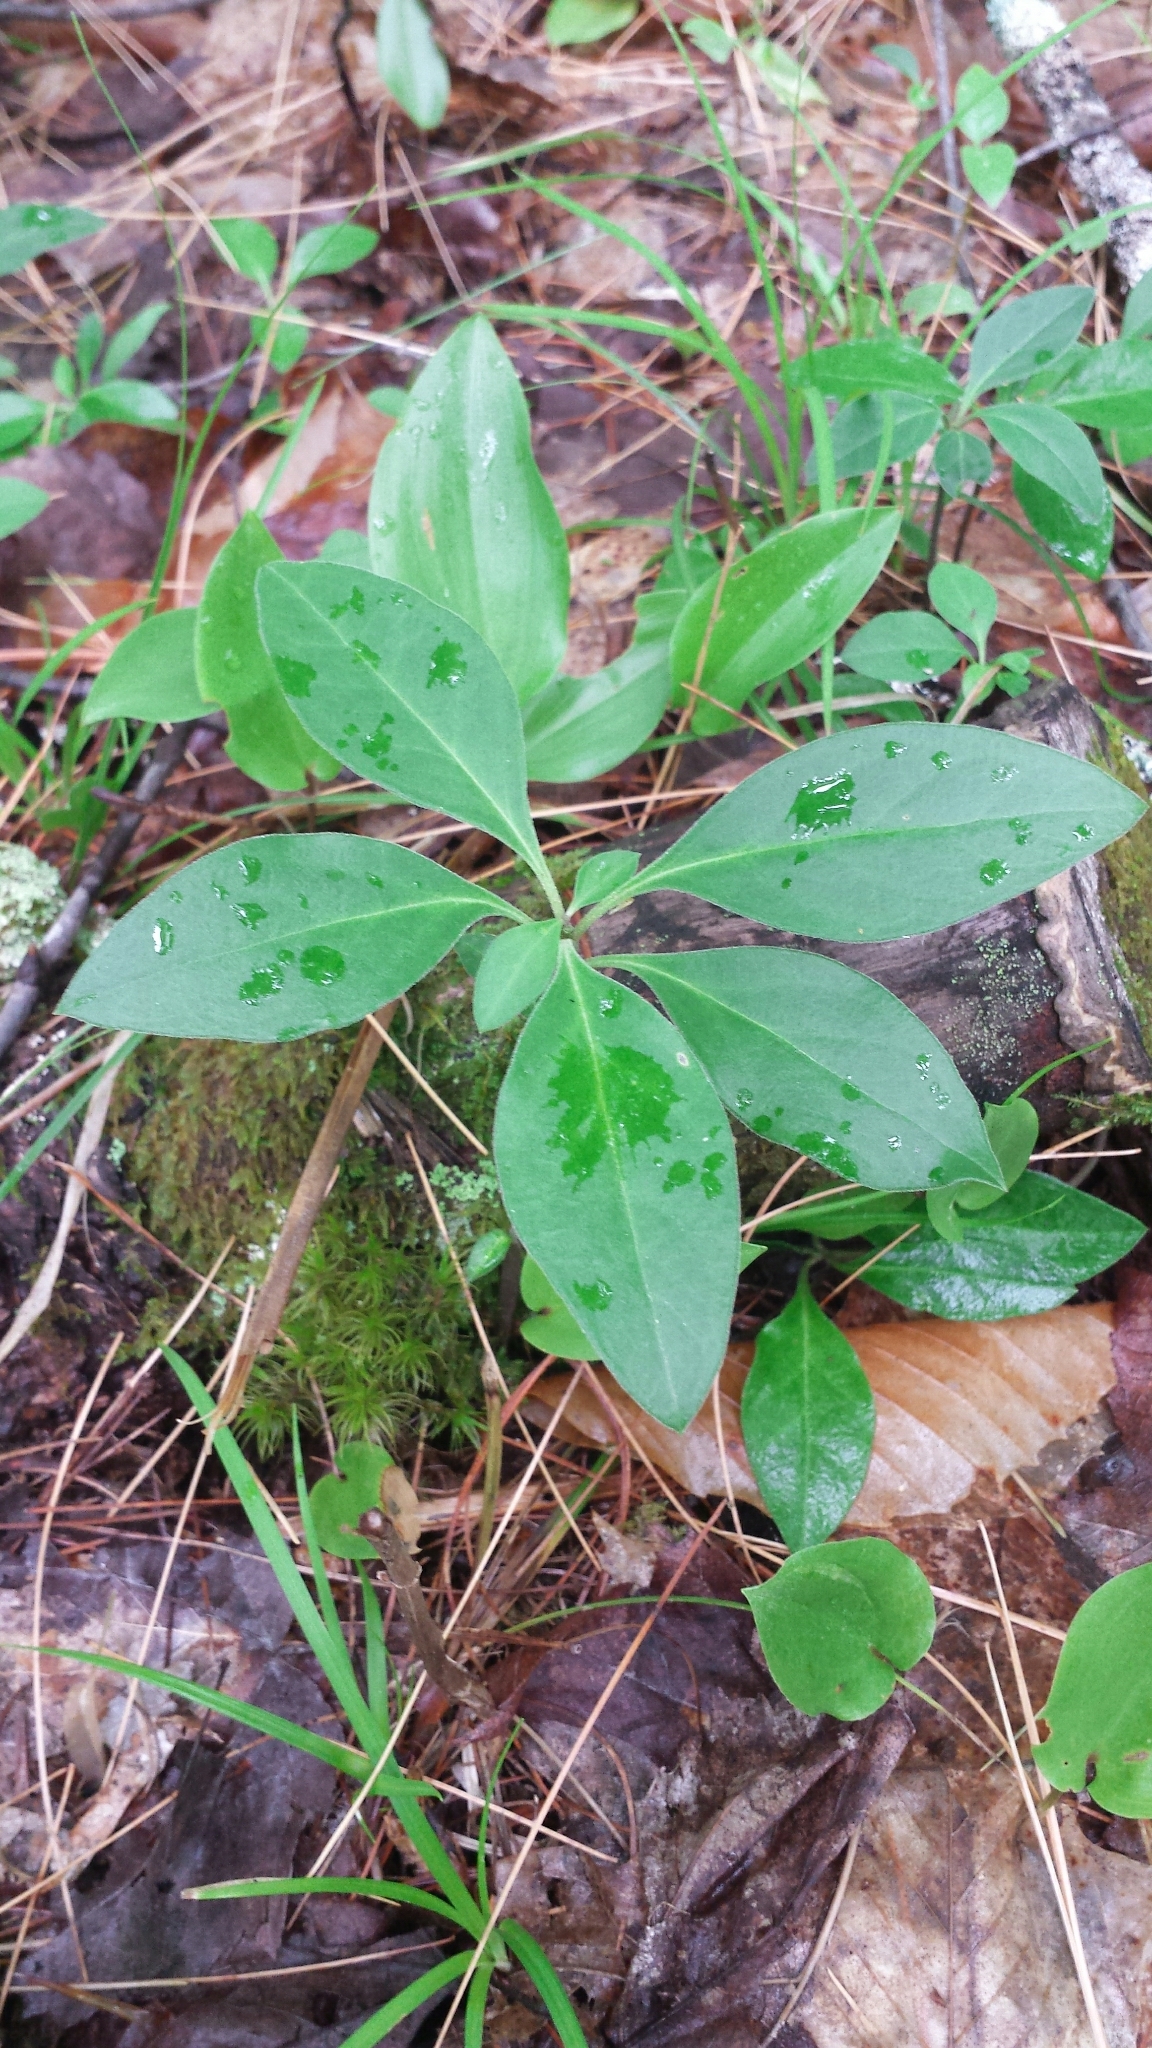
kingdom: Plantae
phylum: Tracheophyta
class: Magnoliopsida
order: Fabales
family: Polygalaceae
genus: Polygaloides
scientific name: Polygaloides paucifolia
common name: Bird-on-the-wing
